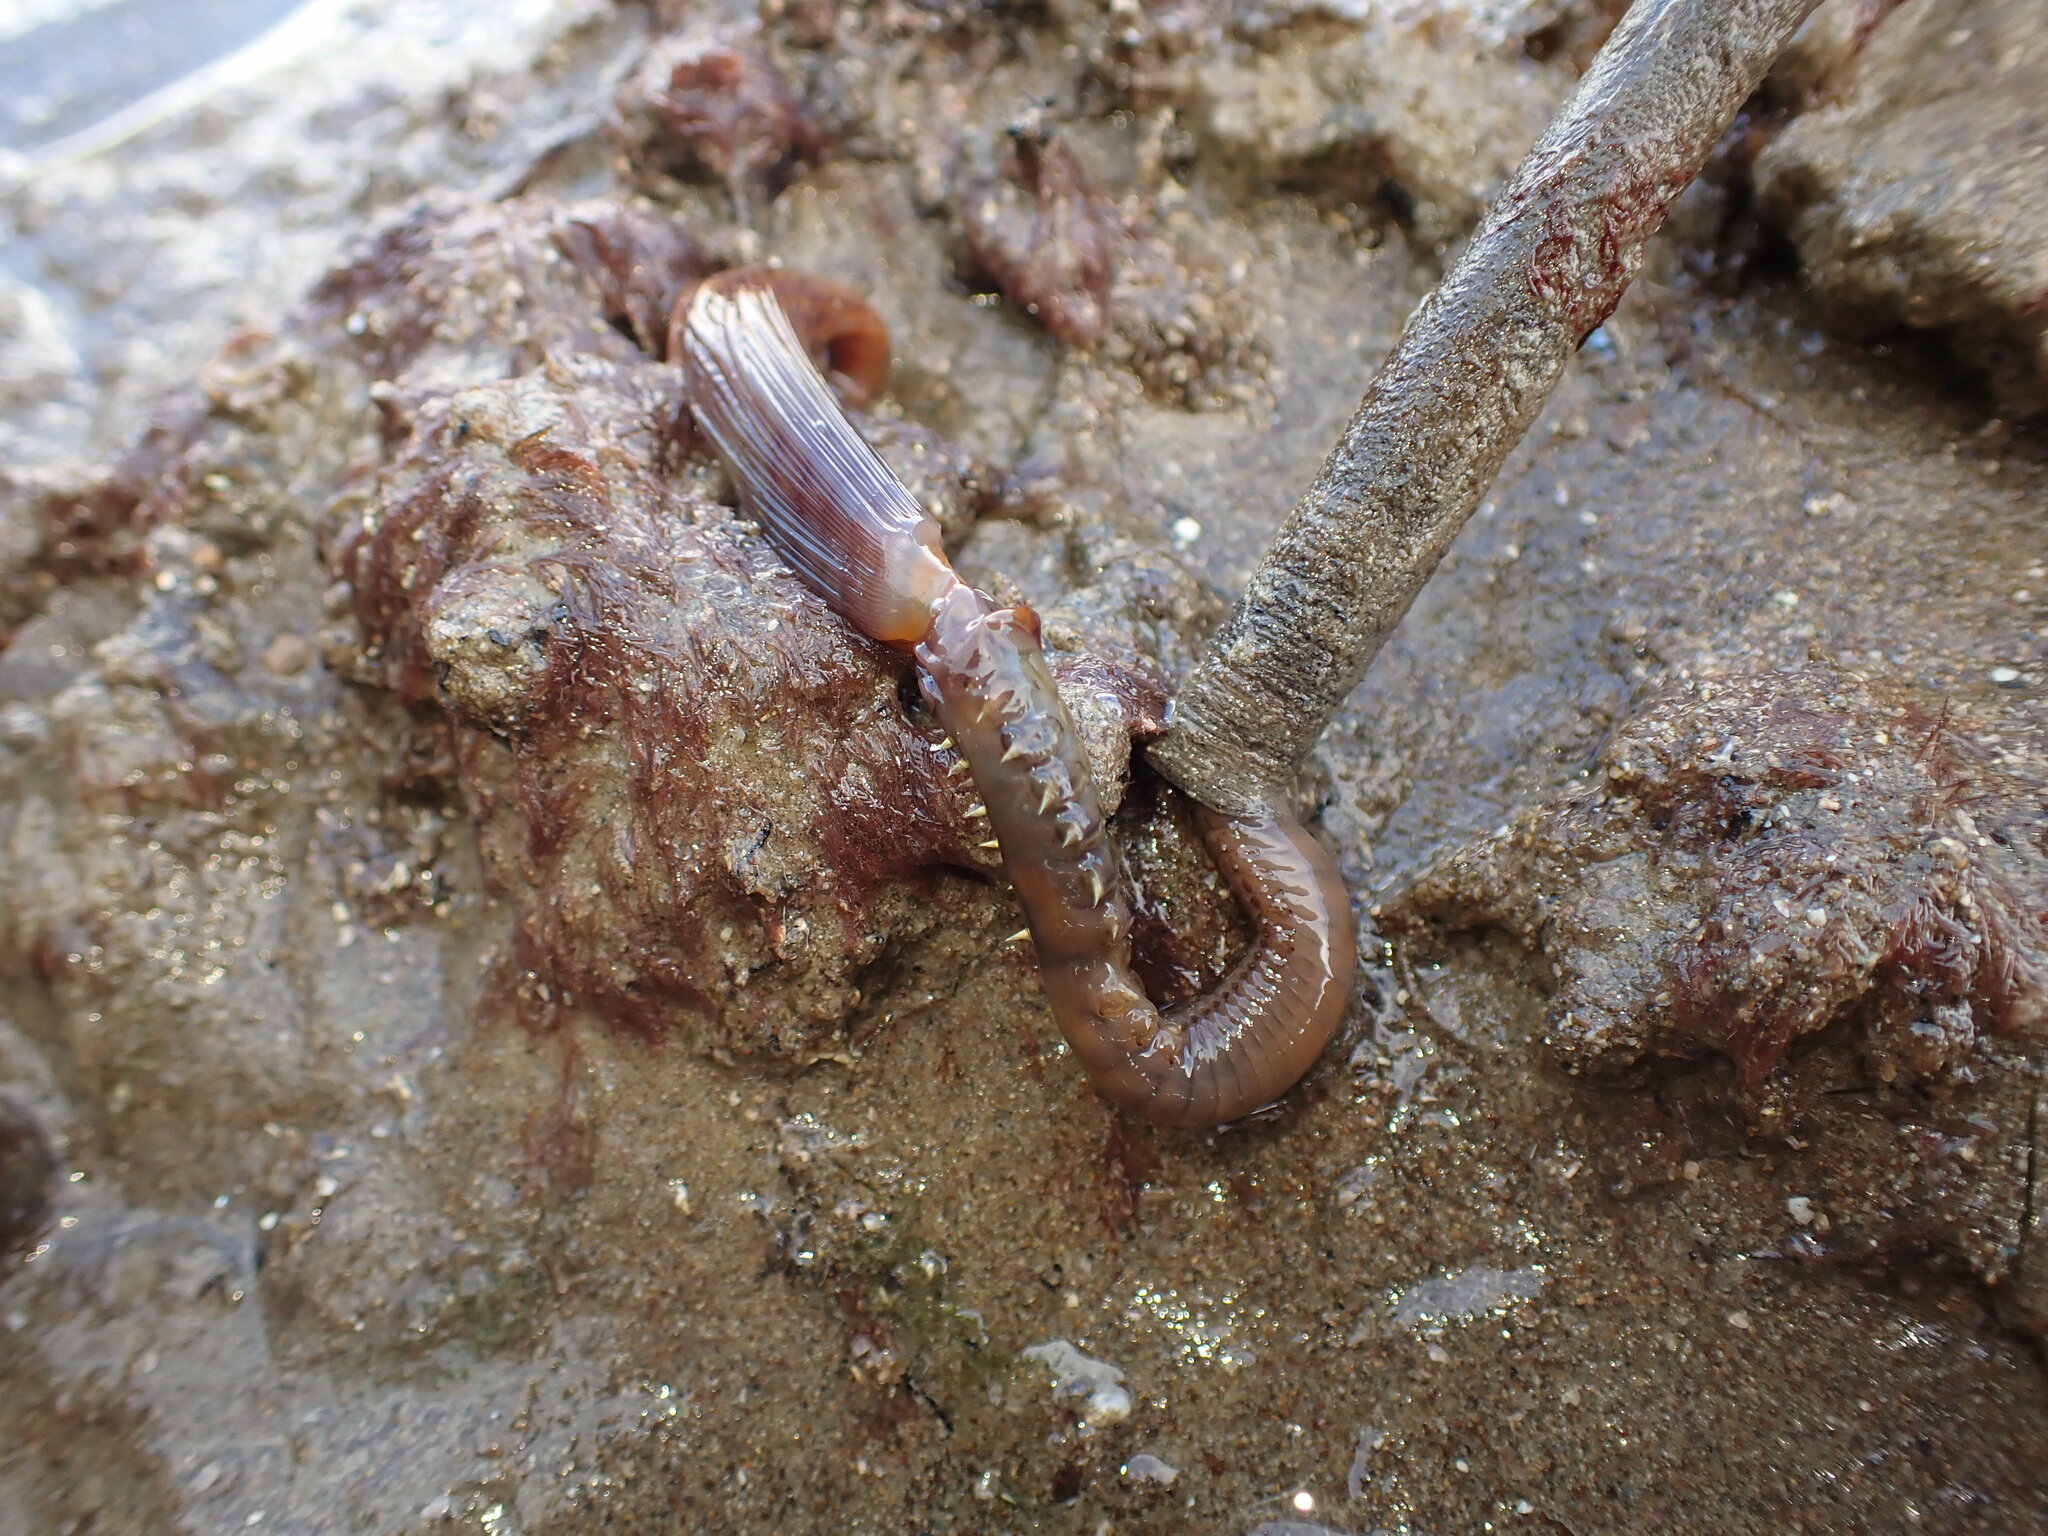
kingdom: Animalia
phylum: Annelida
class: Polychaeta
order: Sabellida
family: Sabellidae
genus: Sabella
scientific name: Sabella spallanzanii
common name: Feather duster worm
